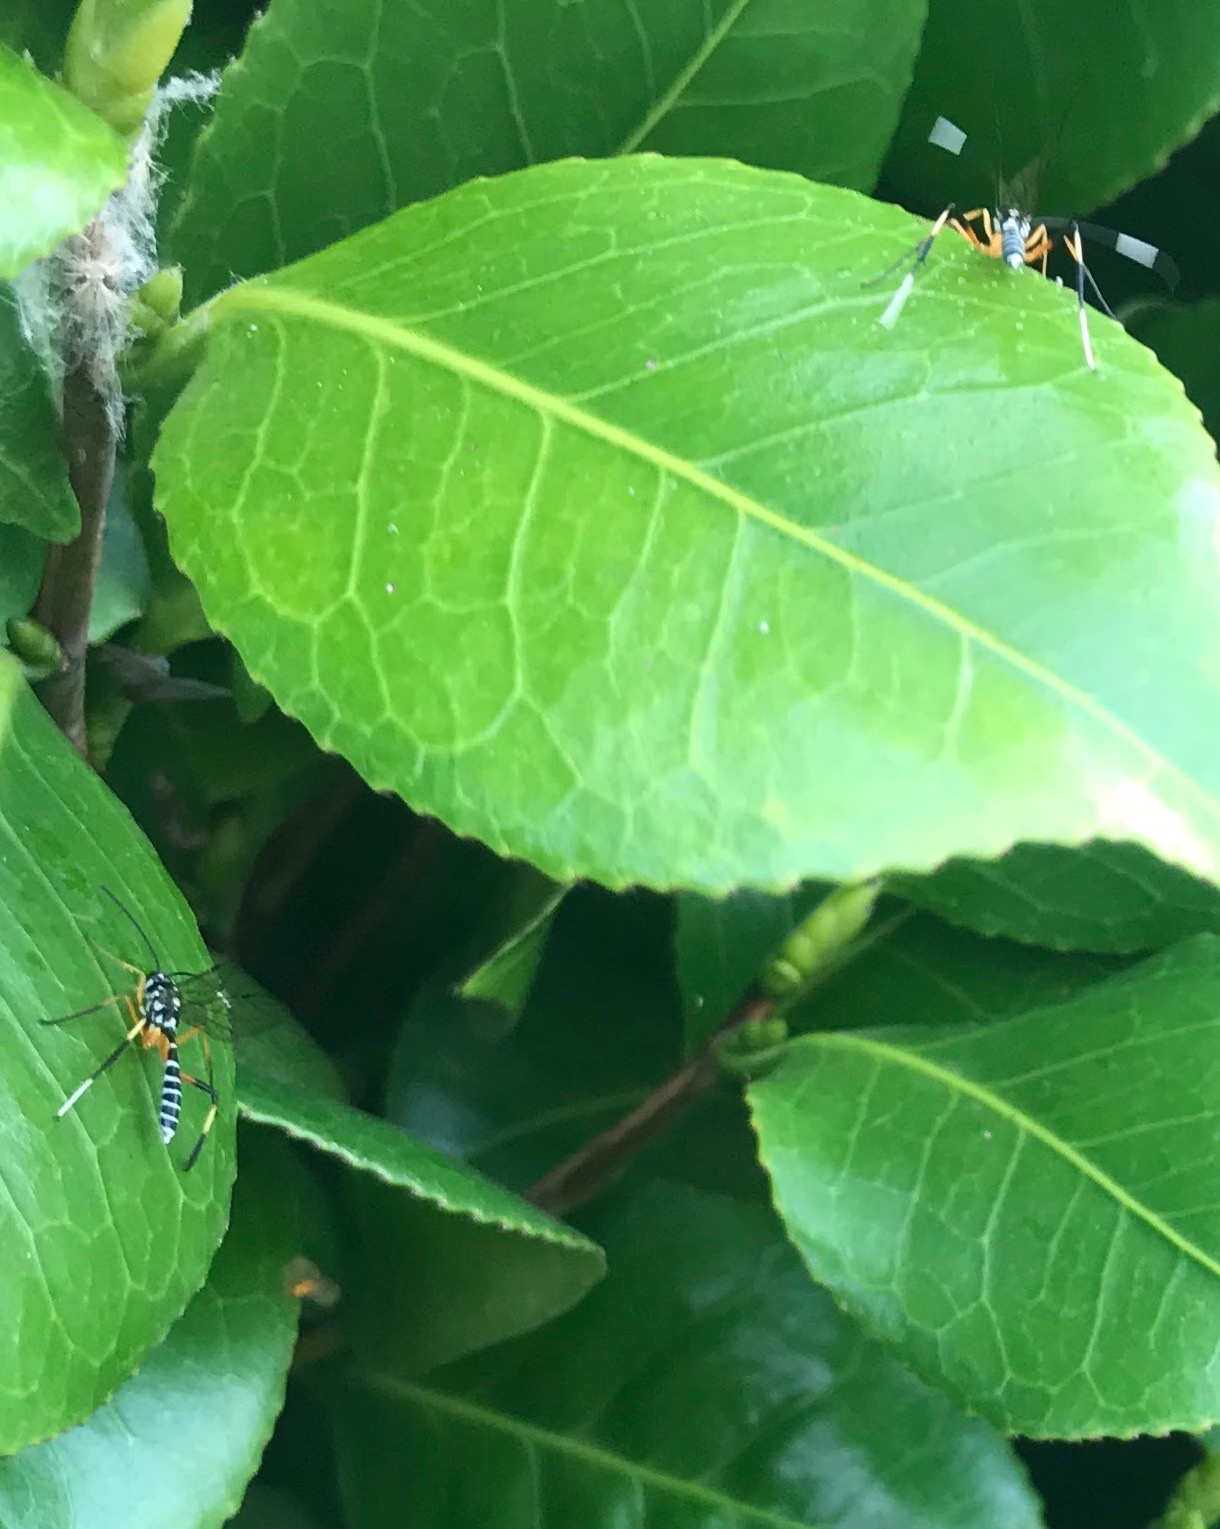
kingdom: Animalia
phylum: Arthropoda
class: Insecta
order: Hymenoptera
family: Ichneumonidae
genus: Xanthocryptus
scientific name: Xanthocryptus novozealandicus
